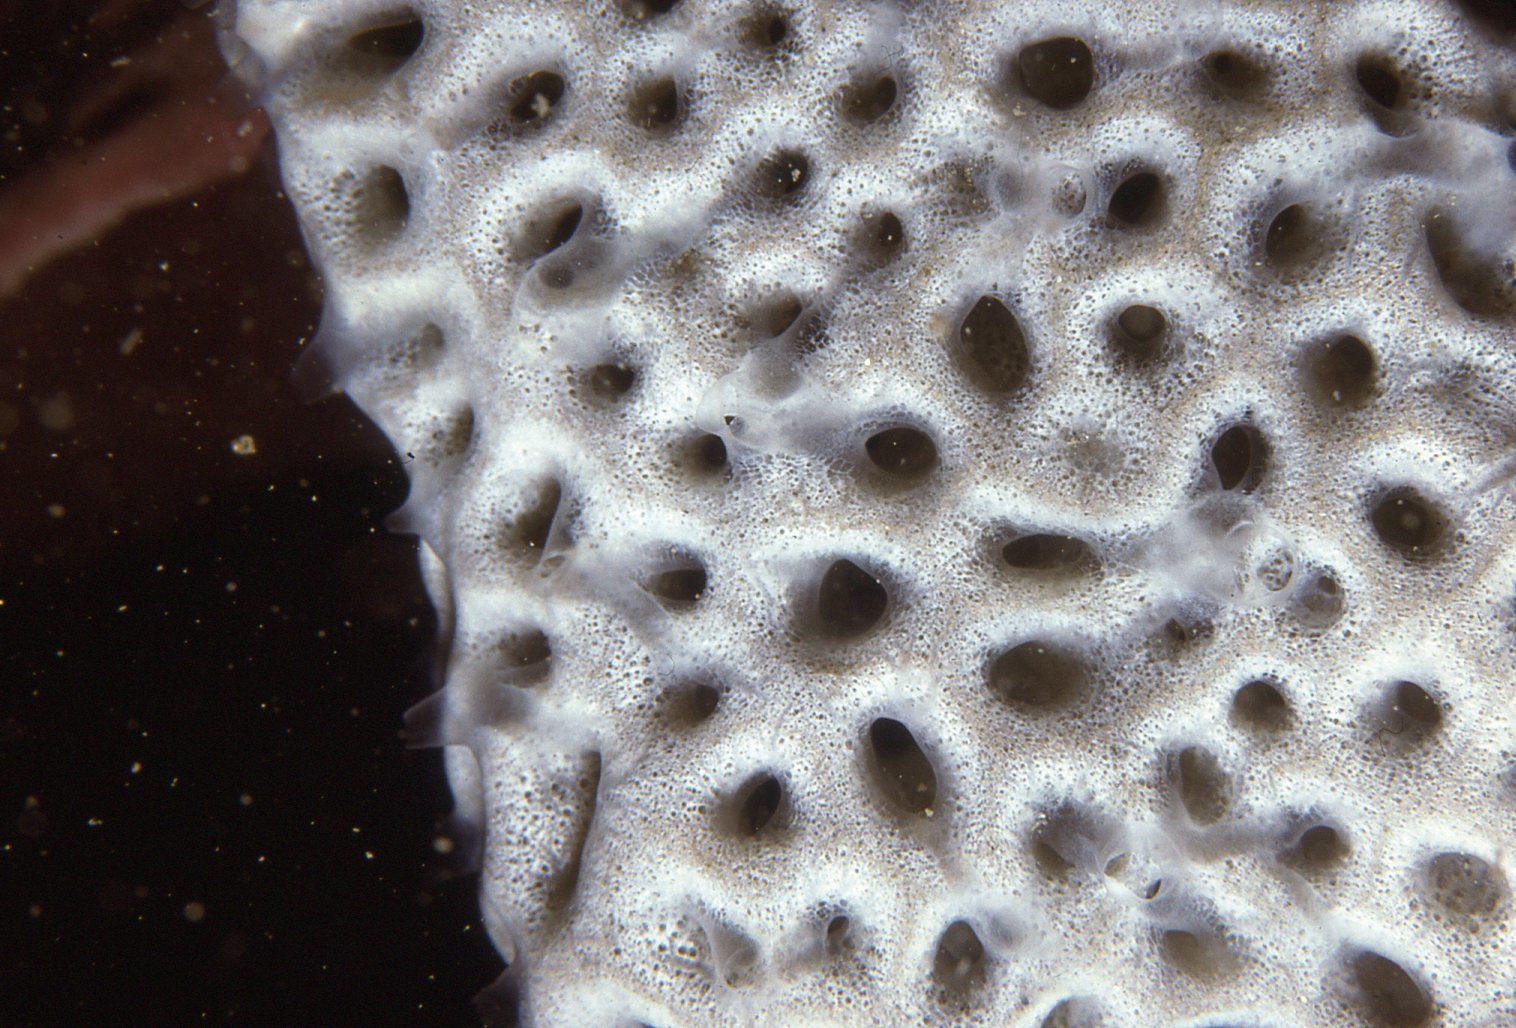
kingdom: Animalia
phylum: Porifera
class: Demospongiae
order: Poecilosclerida
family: Microcionidae
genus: Holopsamma
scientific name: Holopsamma laminaefavosa
